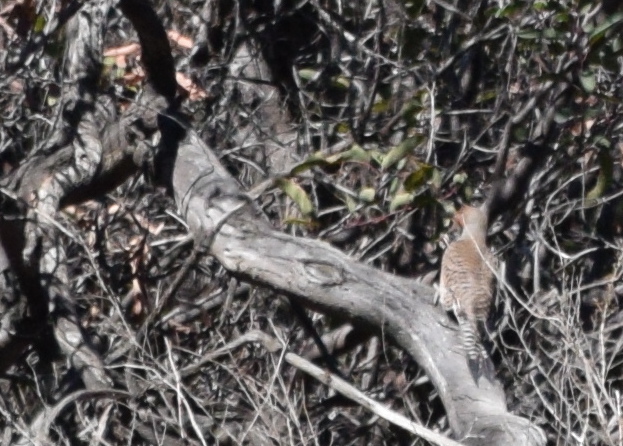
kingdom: Animalia
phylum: Chordata
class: Aves
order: Piciformes
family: Picidae
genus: Colaptes
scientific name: Colaptes auratus
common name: Northern flicker
